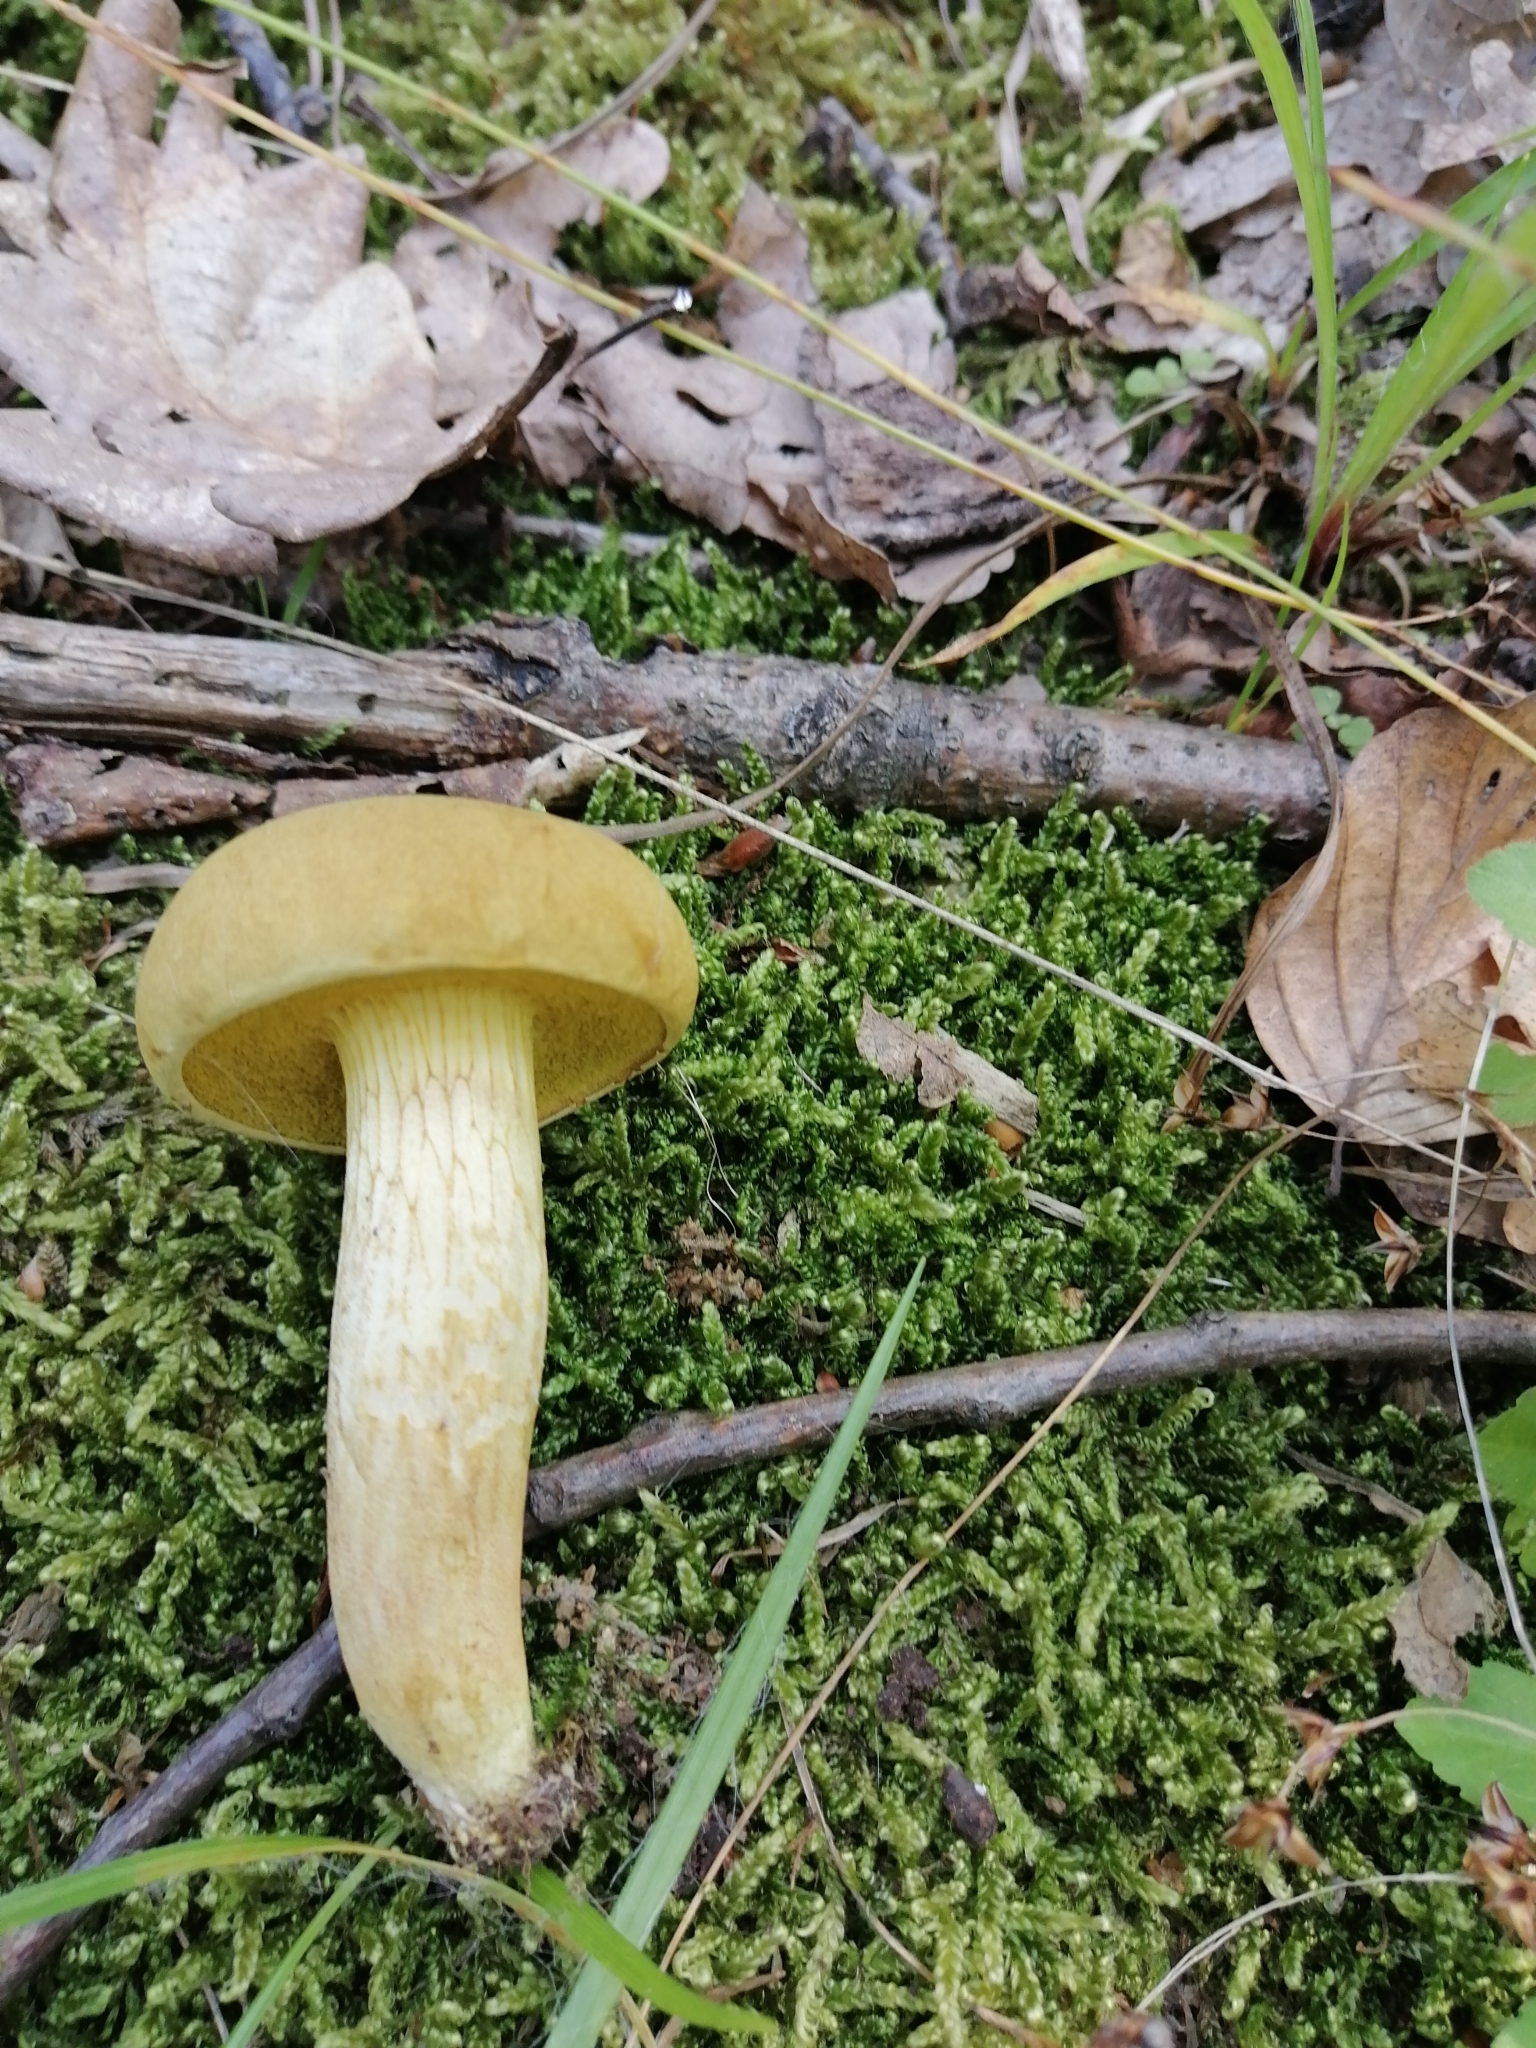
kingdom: Fungi
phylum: Basidiomycota
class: Agaricomycetes
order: Boletales
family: Boletaceae
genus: Xerocomus
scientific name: Xerocomus chrysonemus
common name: Goldenthread bolete
